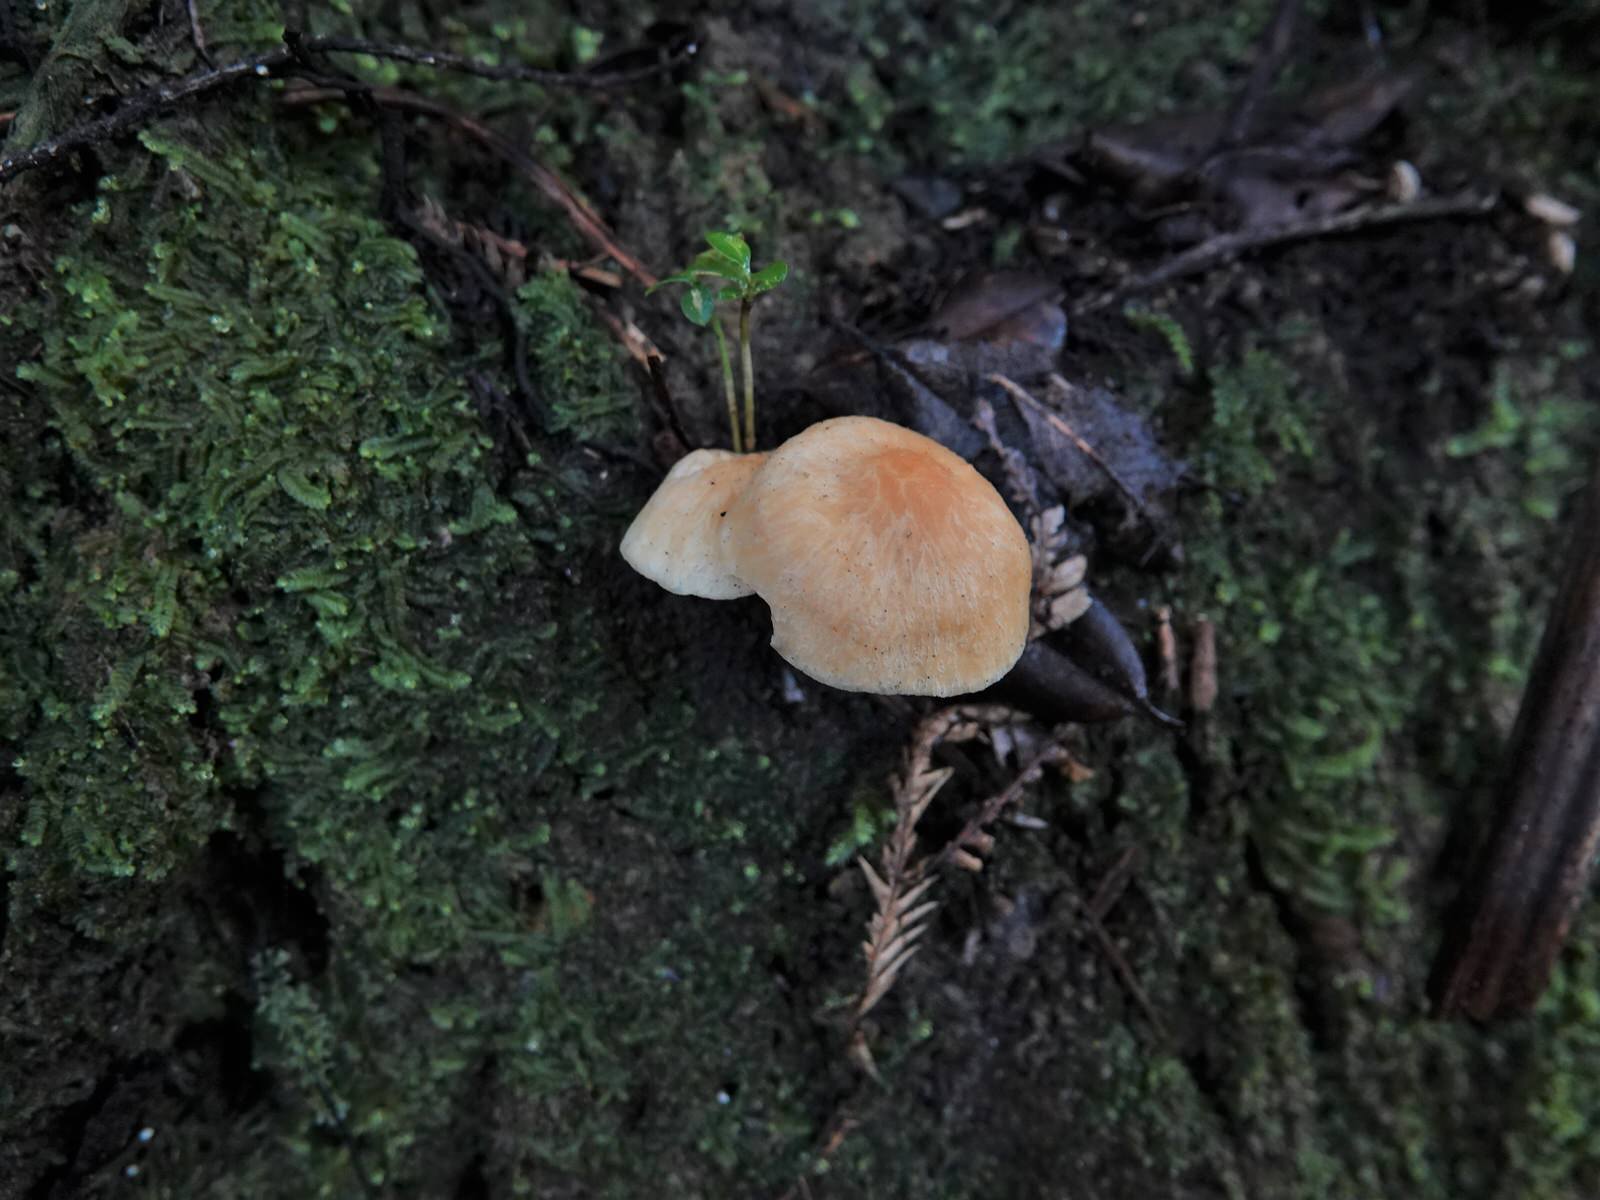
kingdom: Fungi
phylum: Basidiomycota
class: Agaricomycetes
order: Agaricales
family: Hygrophoraceae
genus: Cuphophyllus
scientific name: Cuphophyllus
